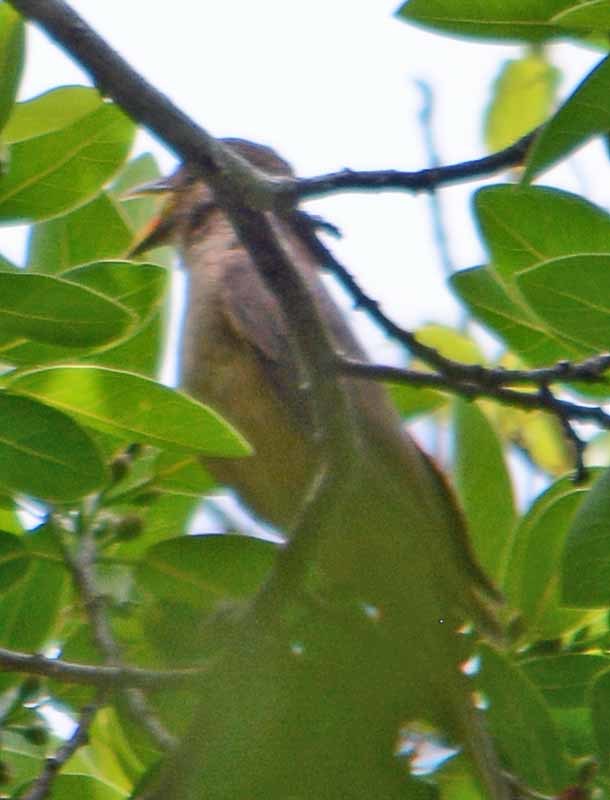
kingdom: Animalia
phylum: Chordata
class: Aves
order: Passeriformes
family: Turdidae
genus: Turdus
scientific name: Turdus grayi
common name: Clay-colored thrush
